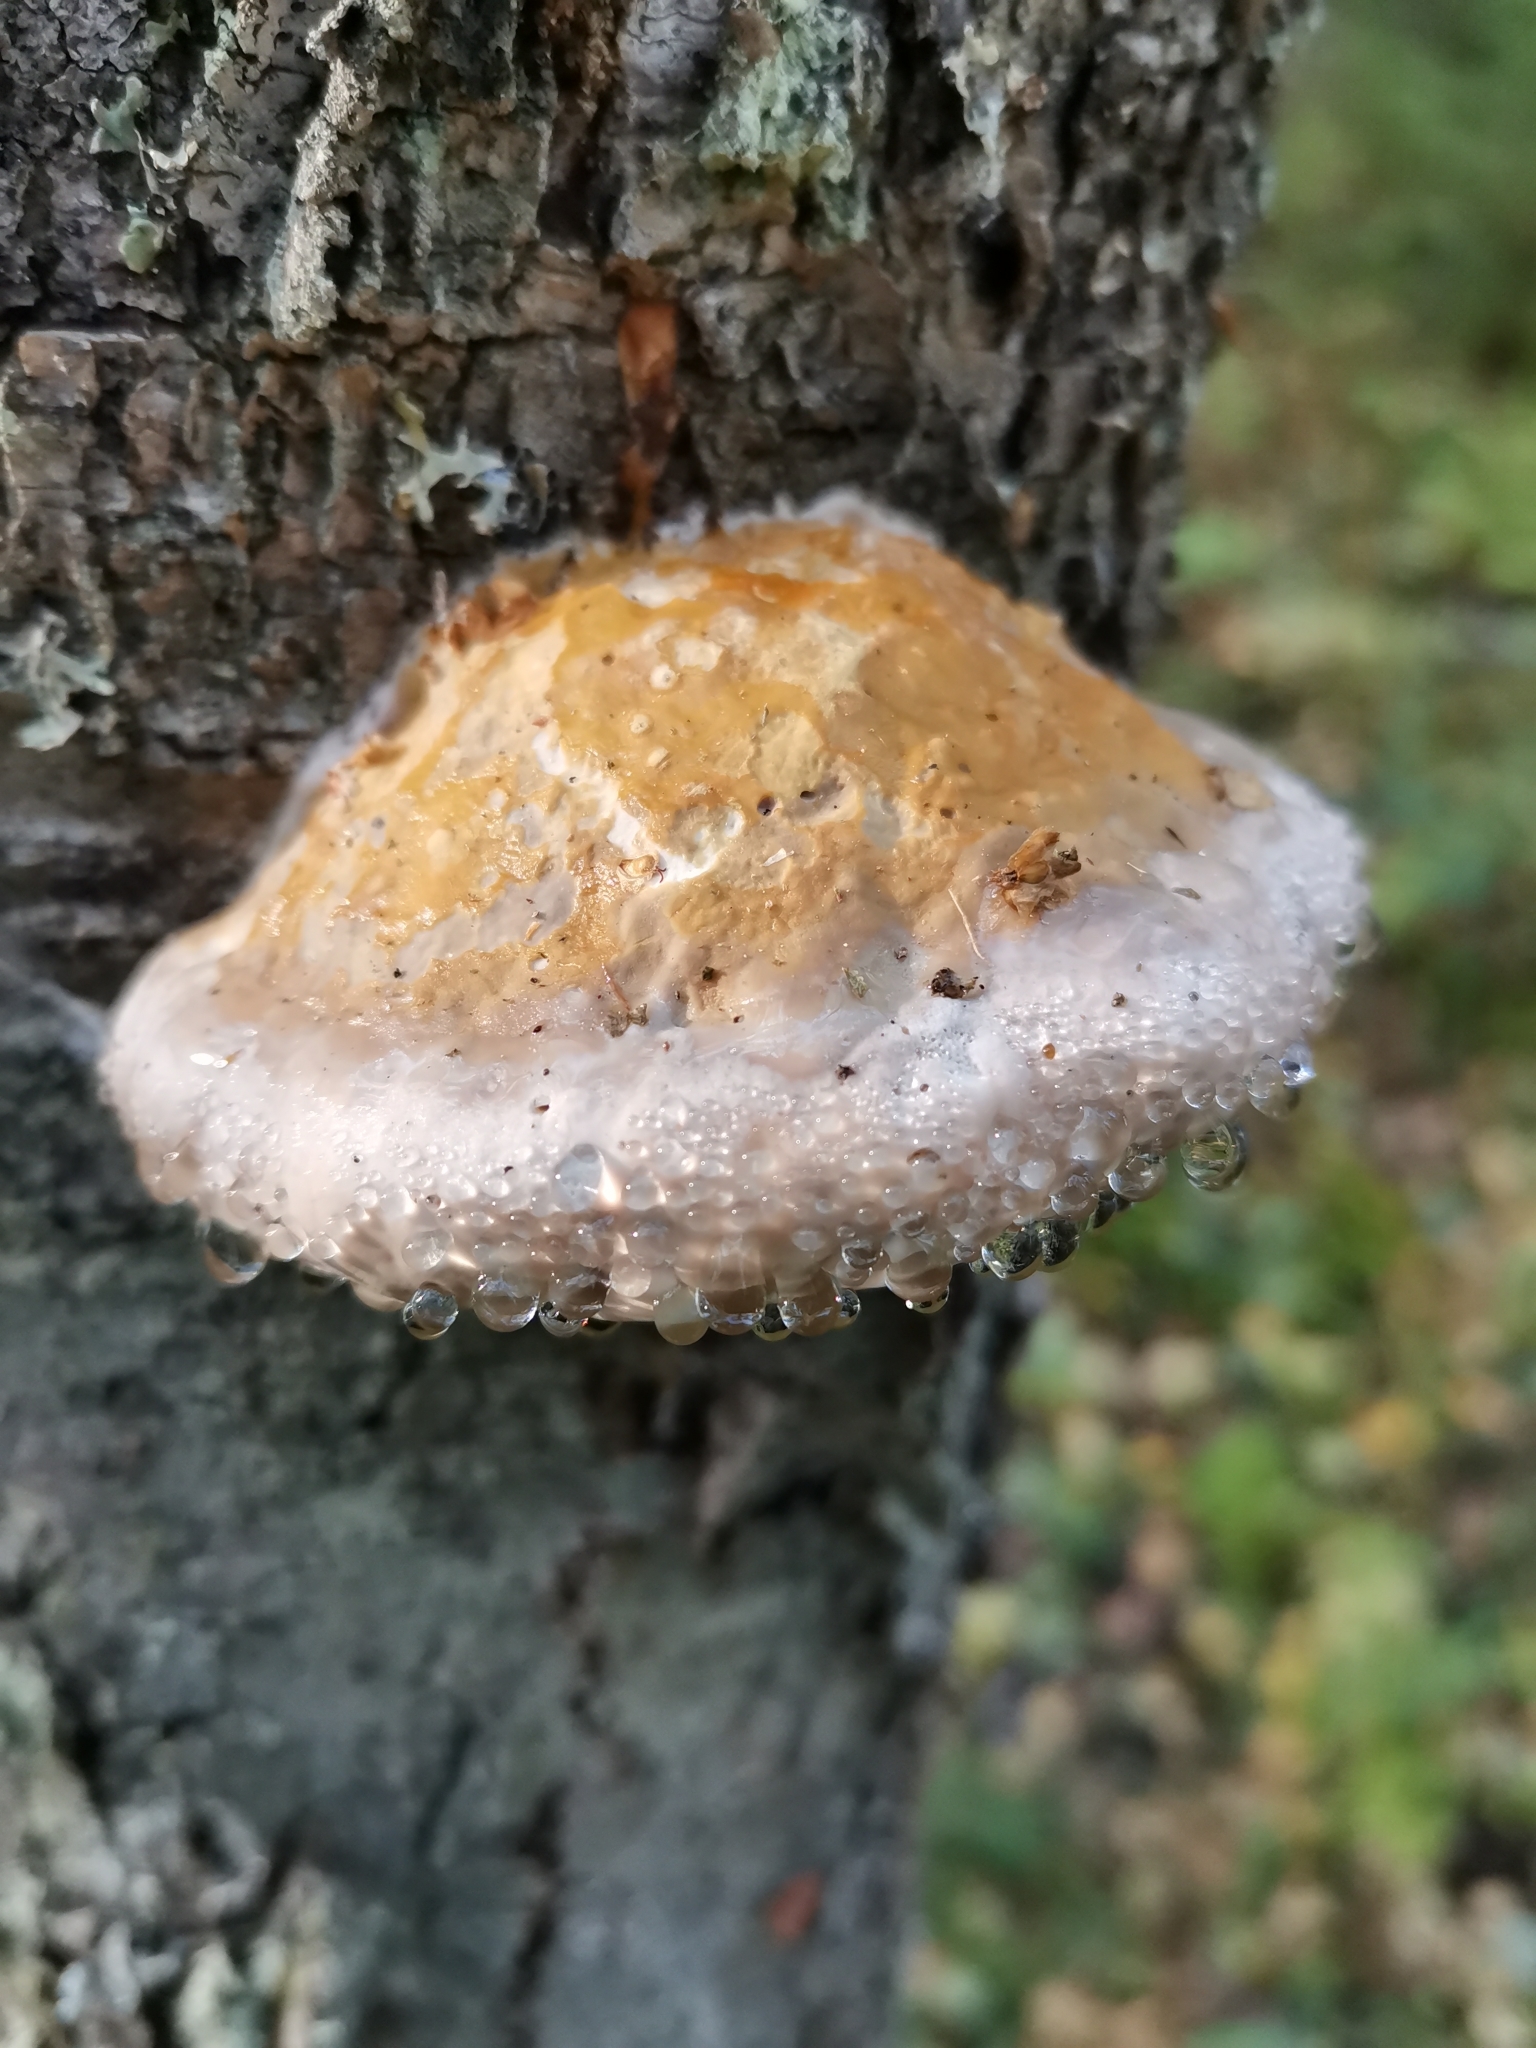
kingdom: Fungi
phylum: Basidiomycota
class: Agaricomycetes
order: Polyporales
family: Fomitopsidaceae
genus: Fomitopsis
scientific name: Fomitopsis pinicola
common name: Red-belted bracket
